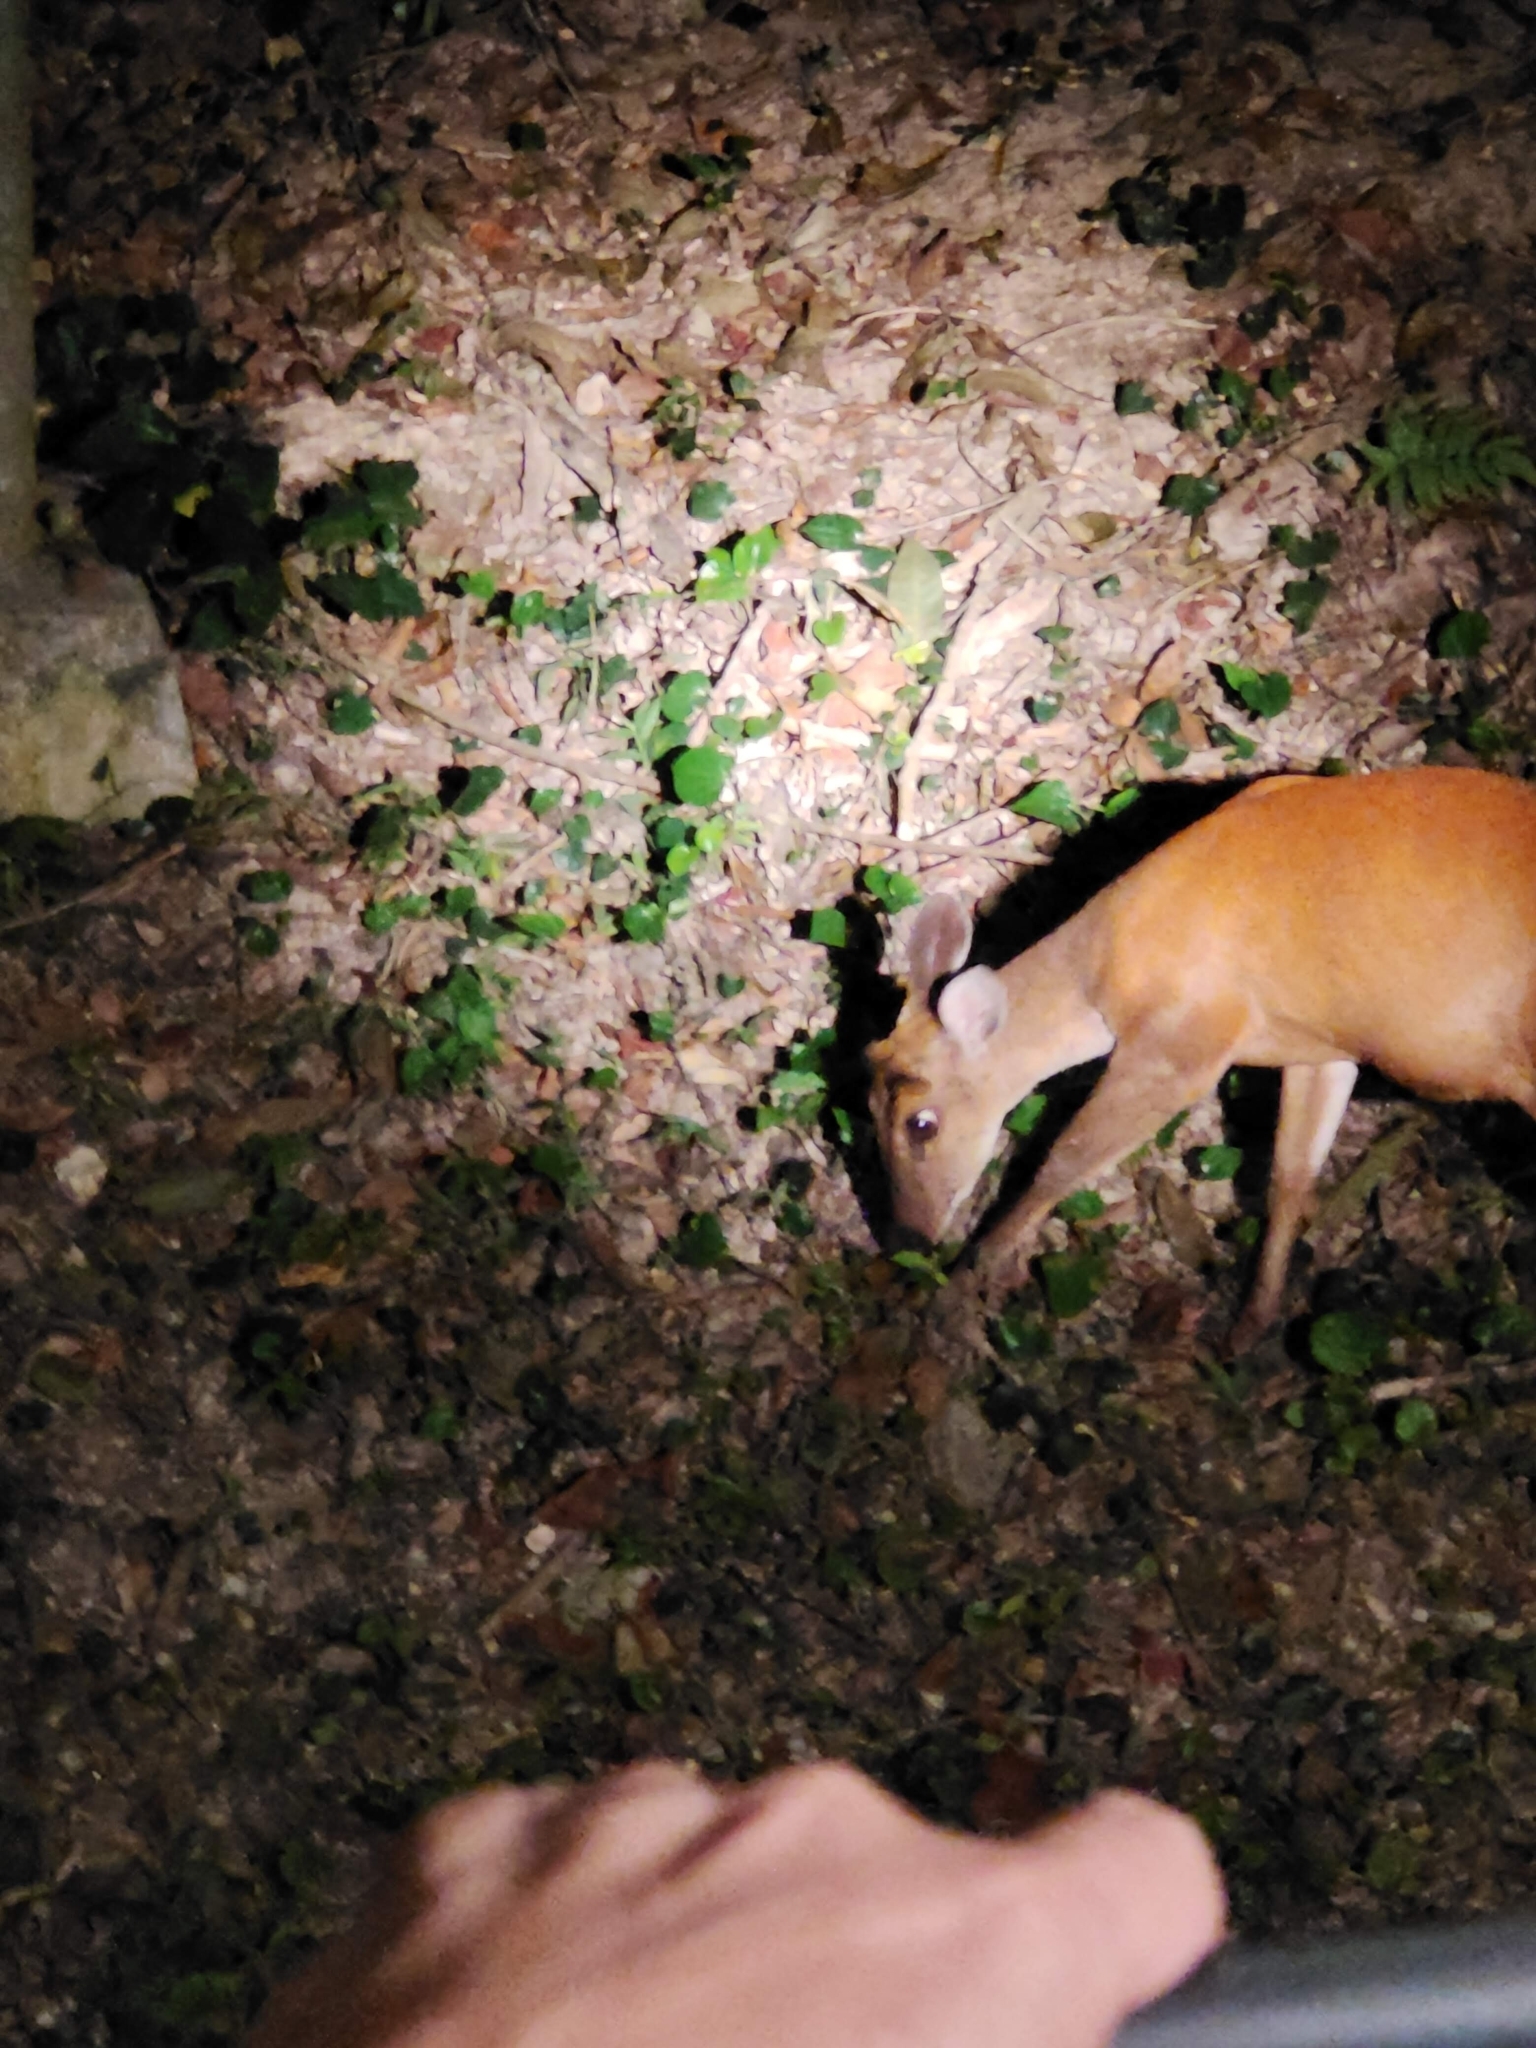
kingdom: Animalia
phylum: Chordata
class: Mammalia
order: Artiodactyla
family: Cervidae
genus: Muntiacus
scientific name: Muntiacus muntjak
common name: Indian muntjac
